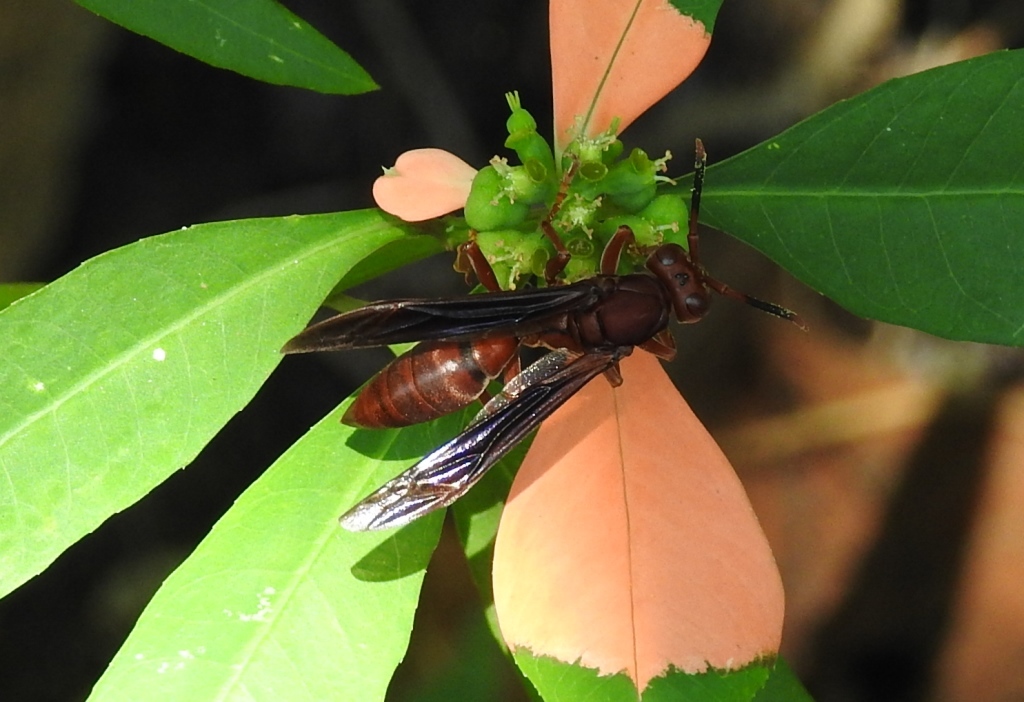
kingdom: Animalia
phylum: Arthropoda
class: Insecta
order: Hymenoptera
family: Eumenidae
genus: Polistes
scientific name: Polistes canadensis
